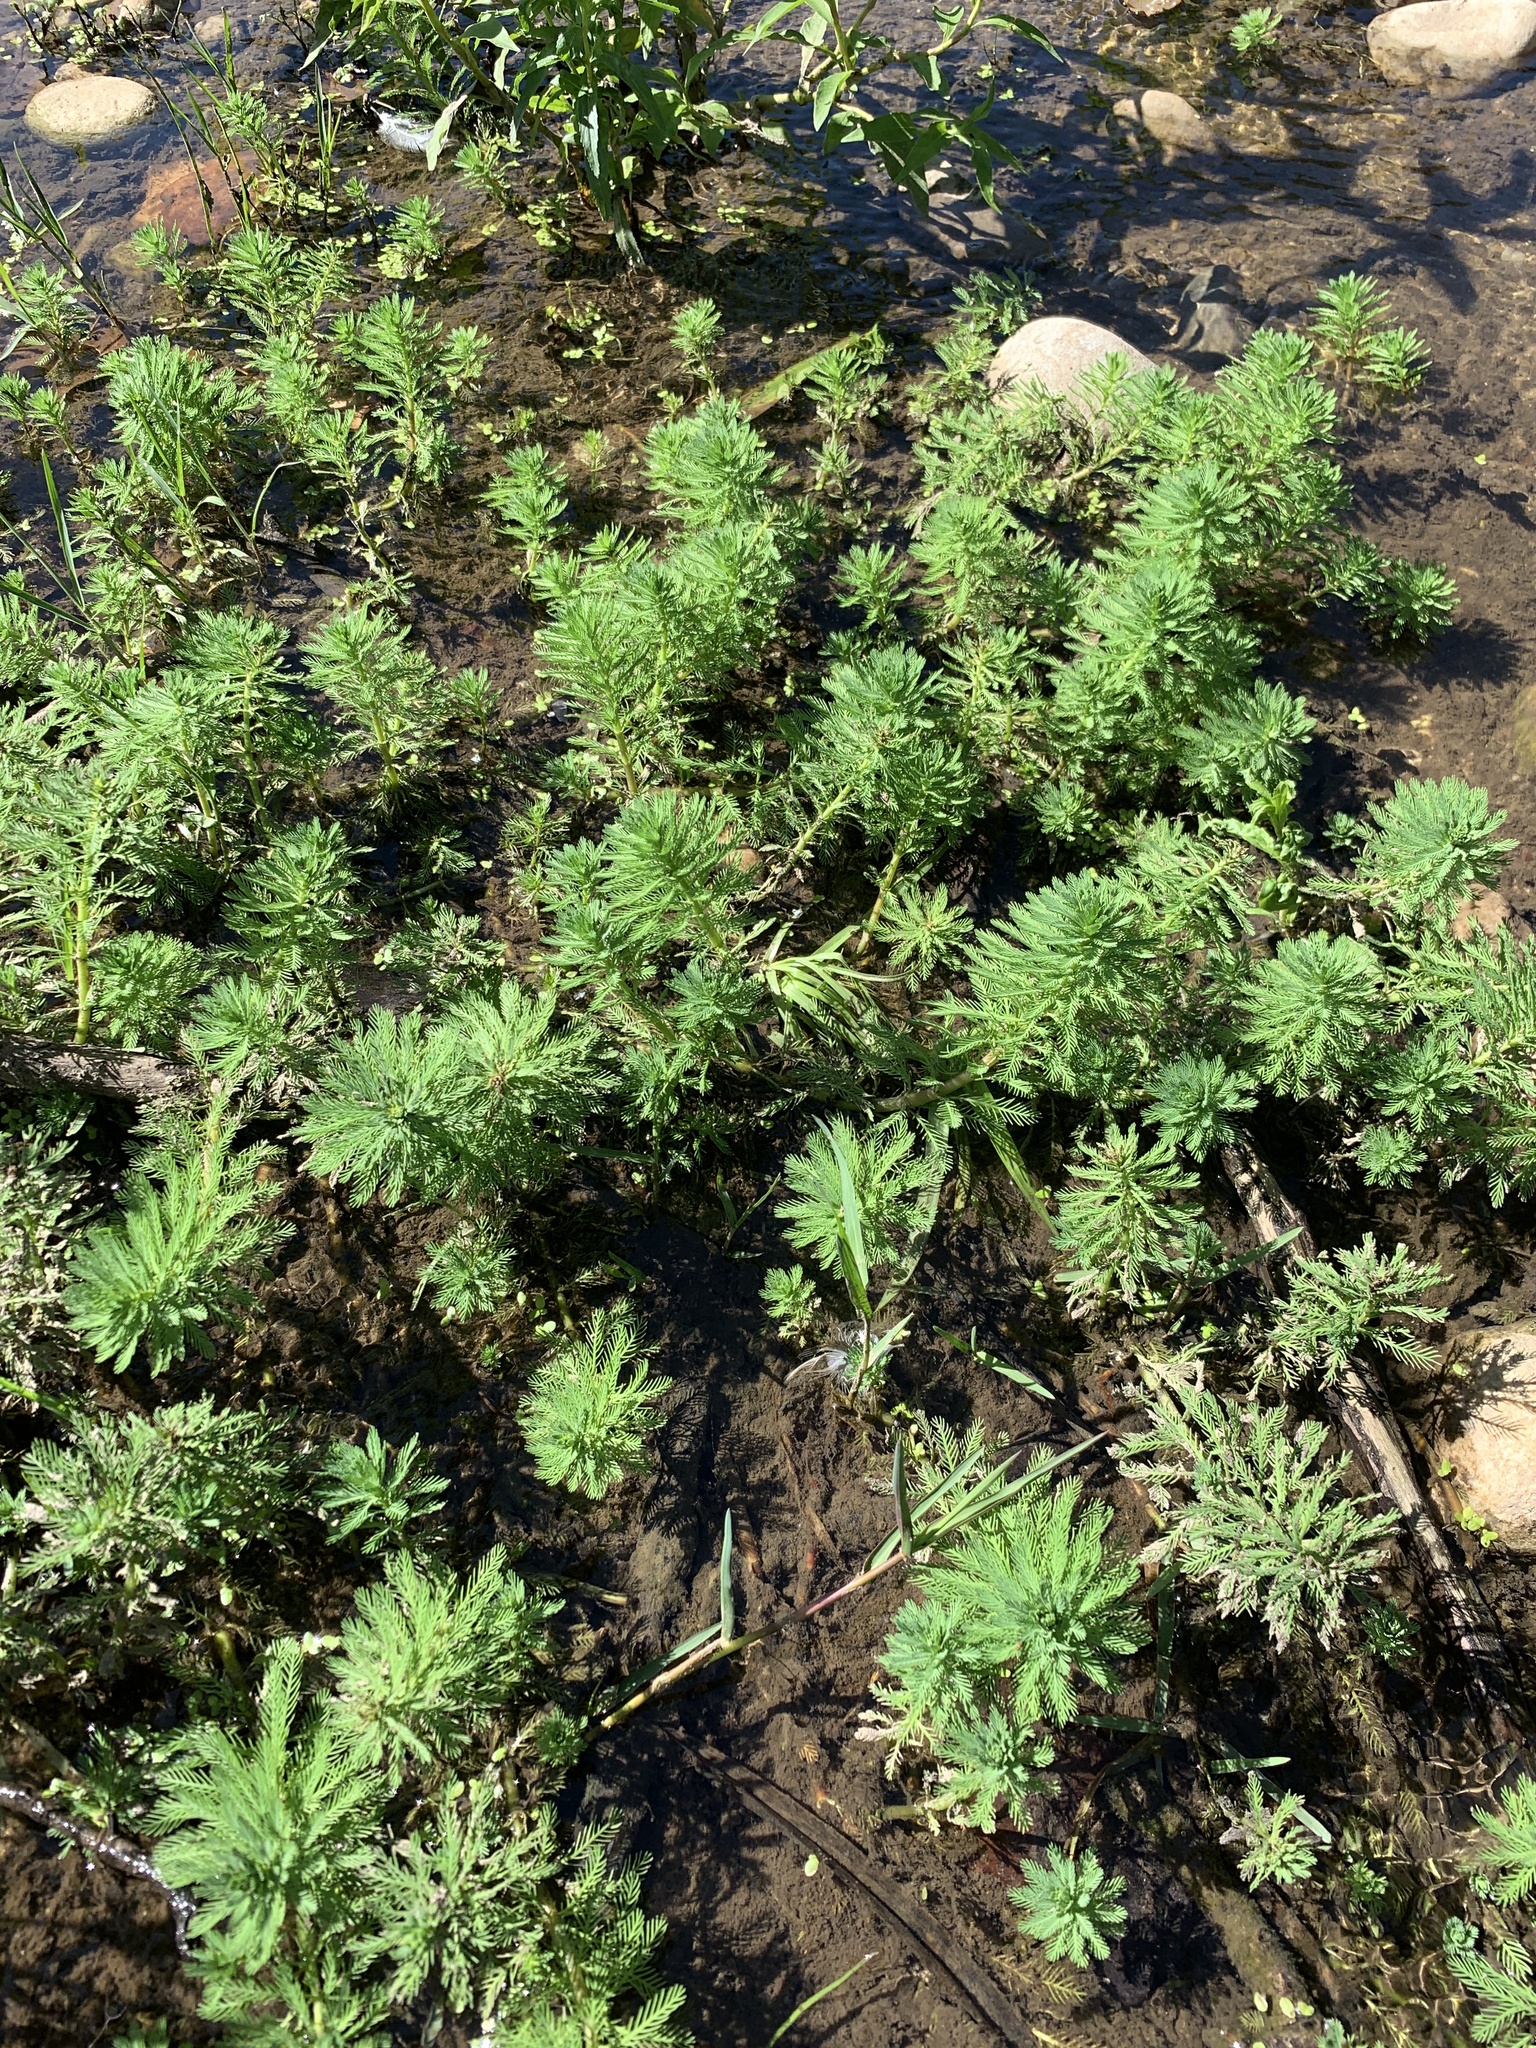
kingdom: Plantae
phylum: Tracheophyta
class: Magnoliopsida
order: Saxifragales
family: Haloragaceae
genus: Myriophyllum
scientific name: Myriophyllum aquaticum
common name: Parrot's feather
